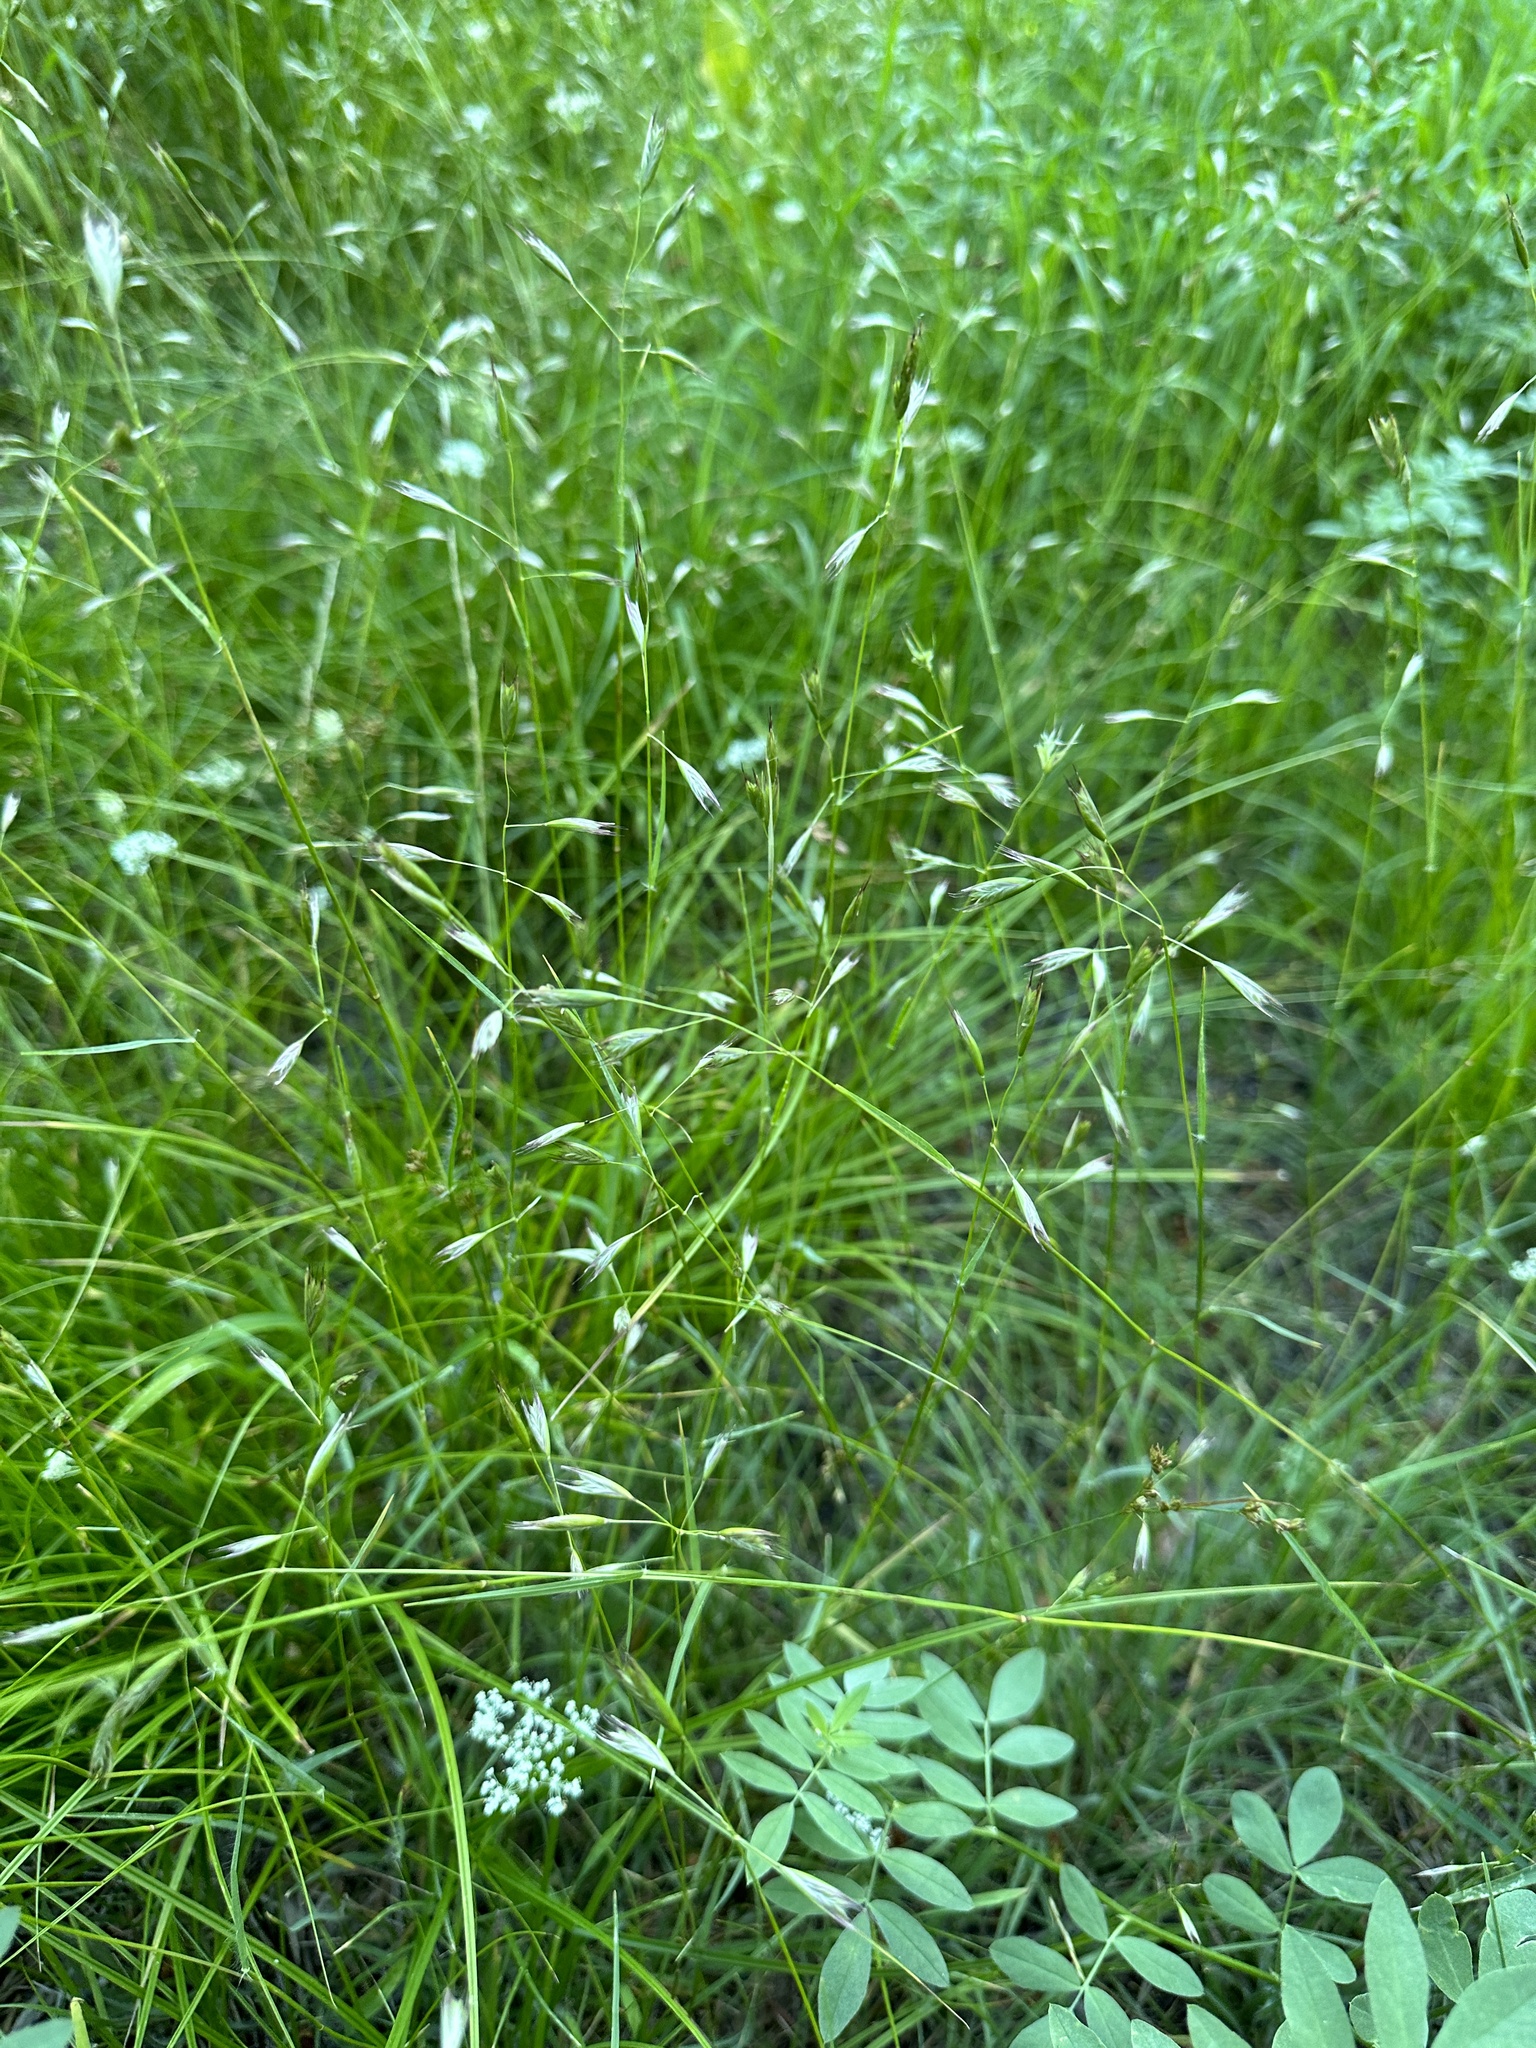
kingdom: Plantae
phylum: Tracheophyta
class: Liliopsida
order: Poales
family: Poaceae
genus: Danthonia
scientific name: Danthonia californica
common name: California oat grass
